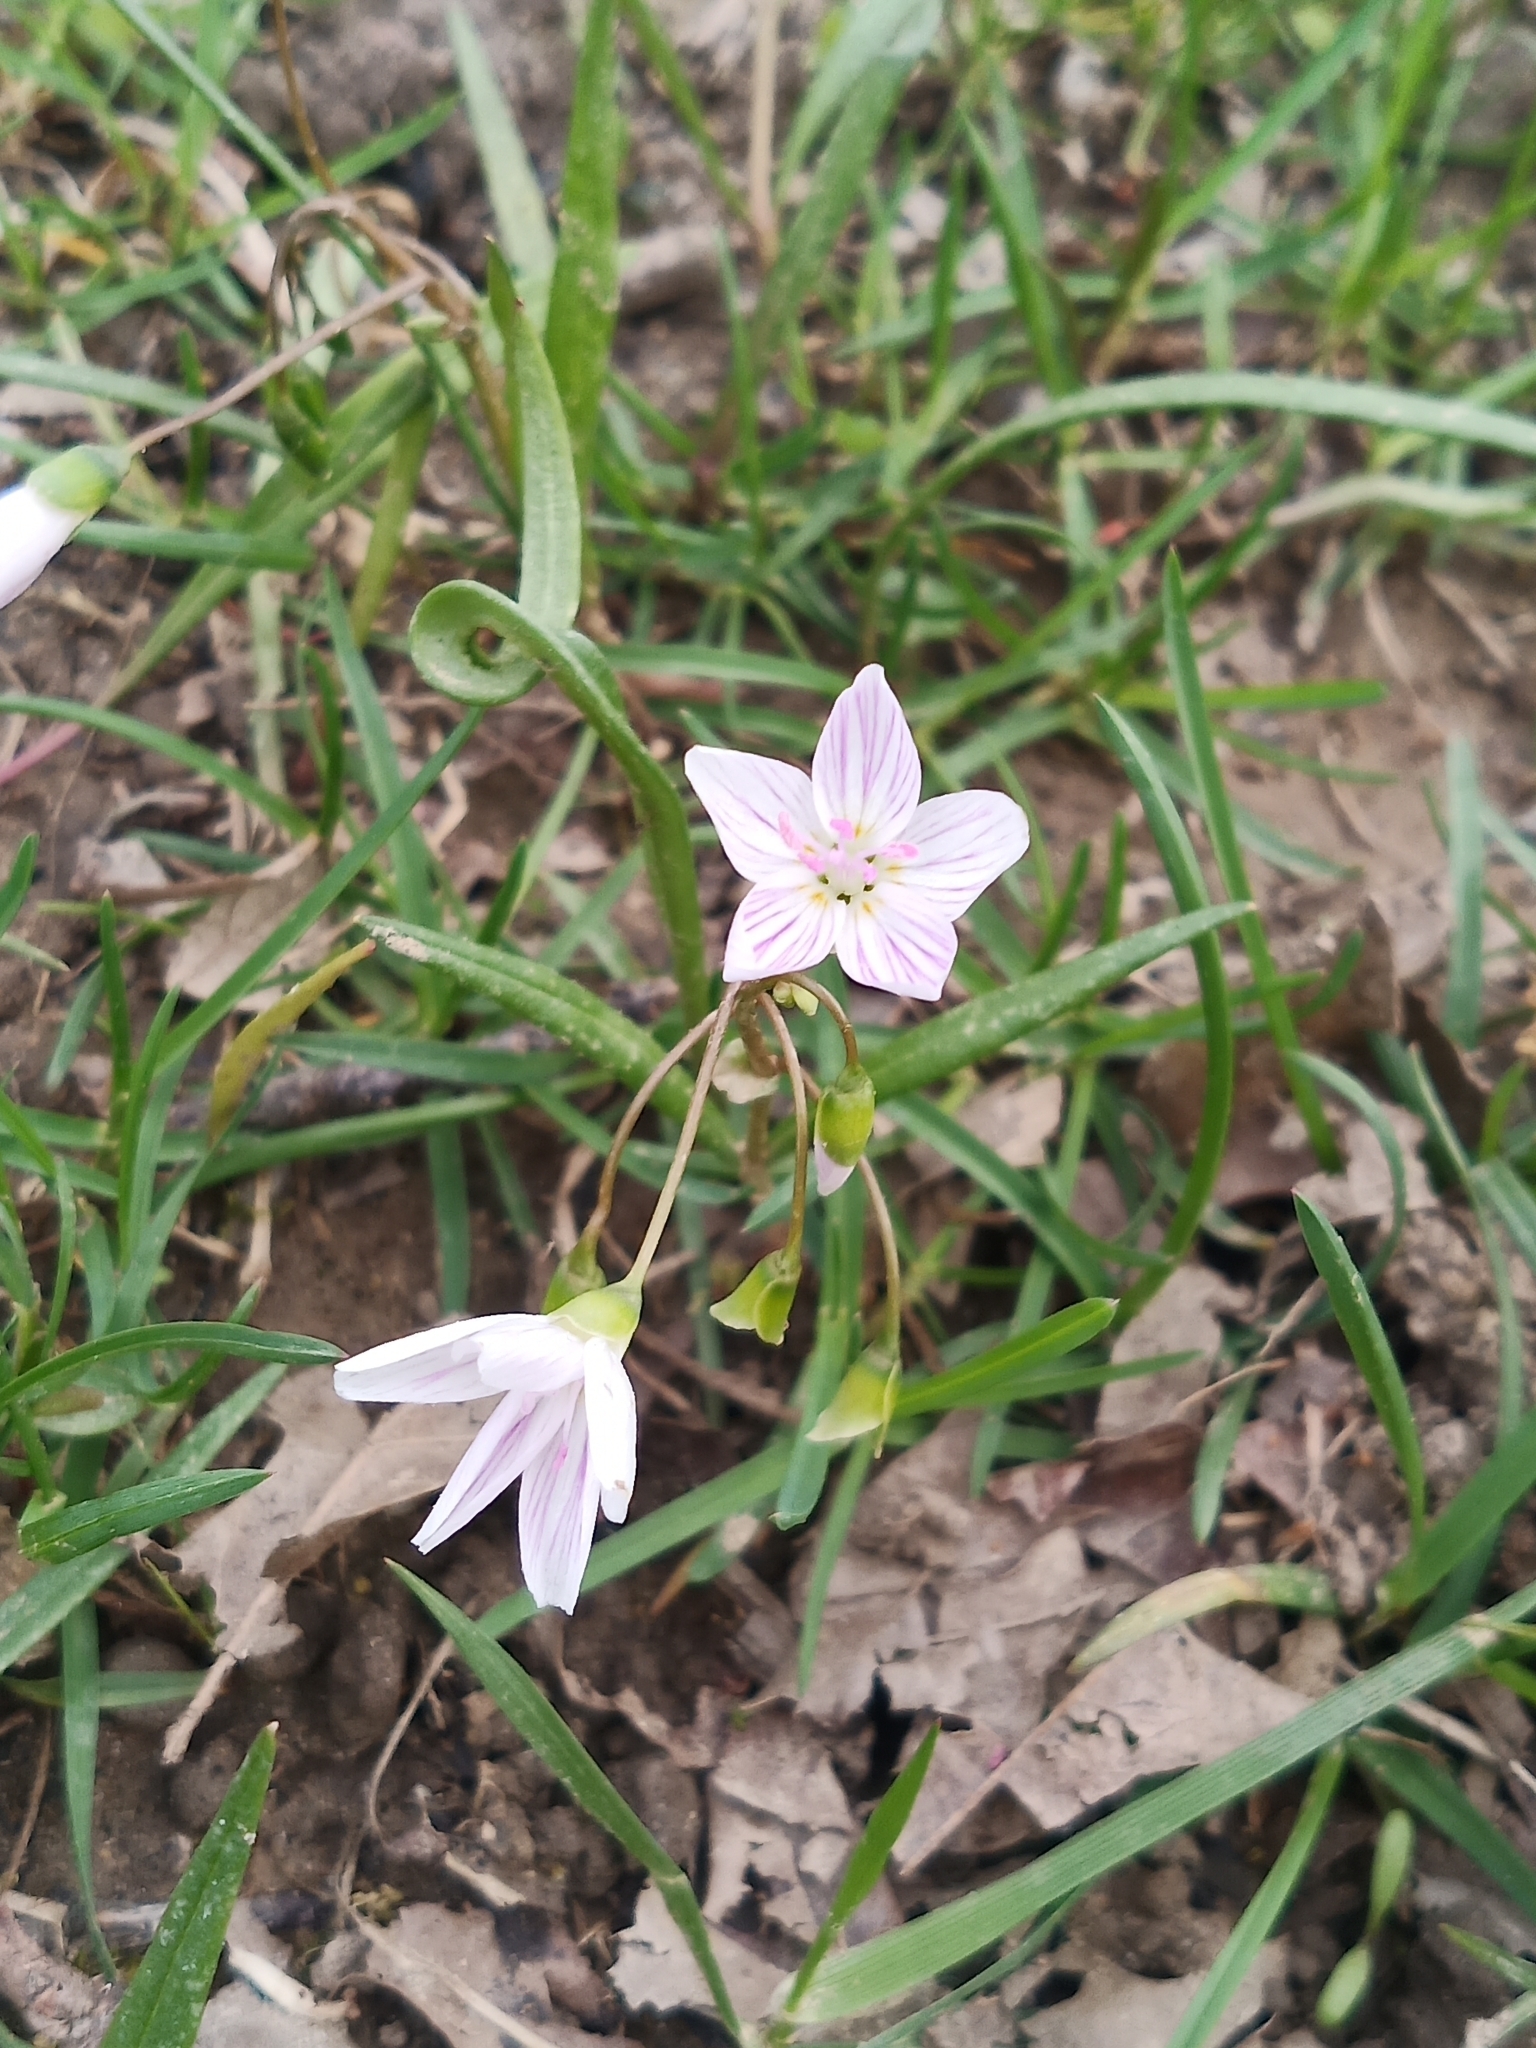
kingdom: Plantae
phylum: Tracheophyta
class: Magnoliopsida
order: Caryophyllales
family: Montiaceae
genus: Claytonia
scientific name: Claytonia virginica
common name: Virginia springbeauty
